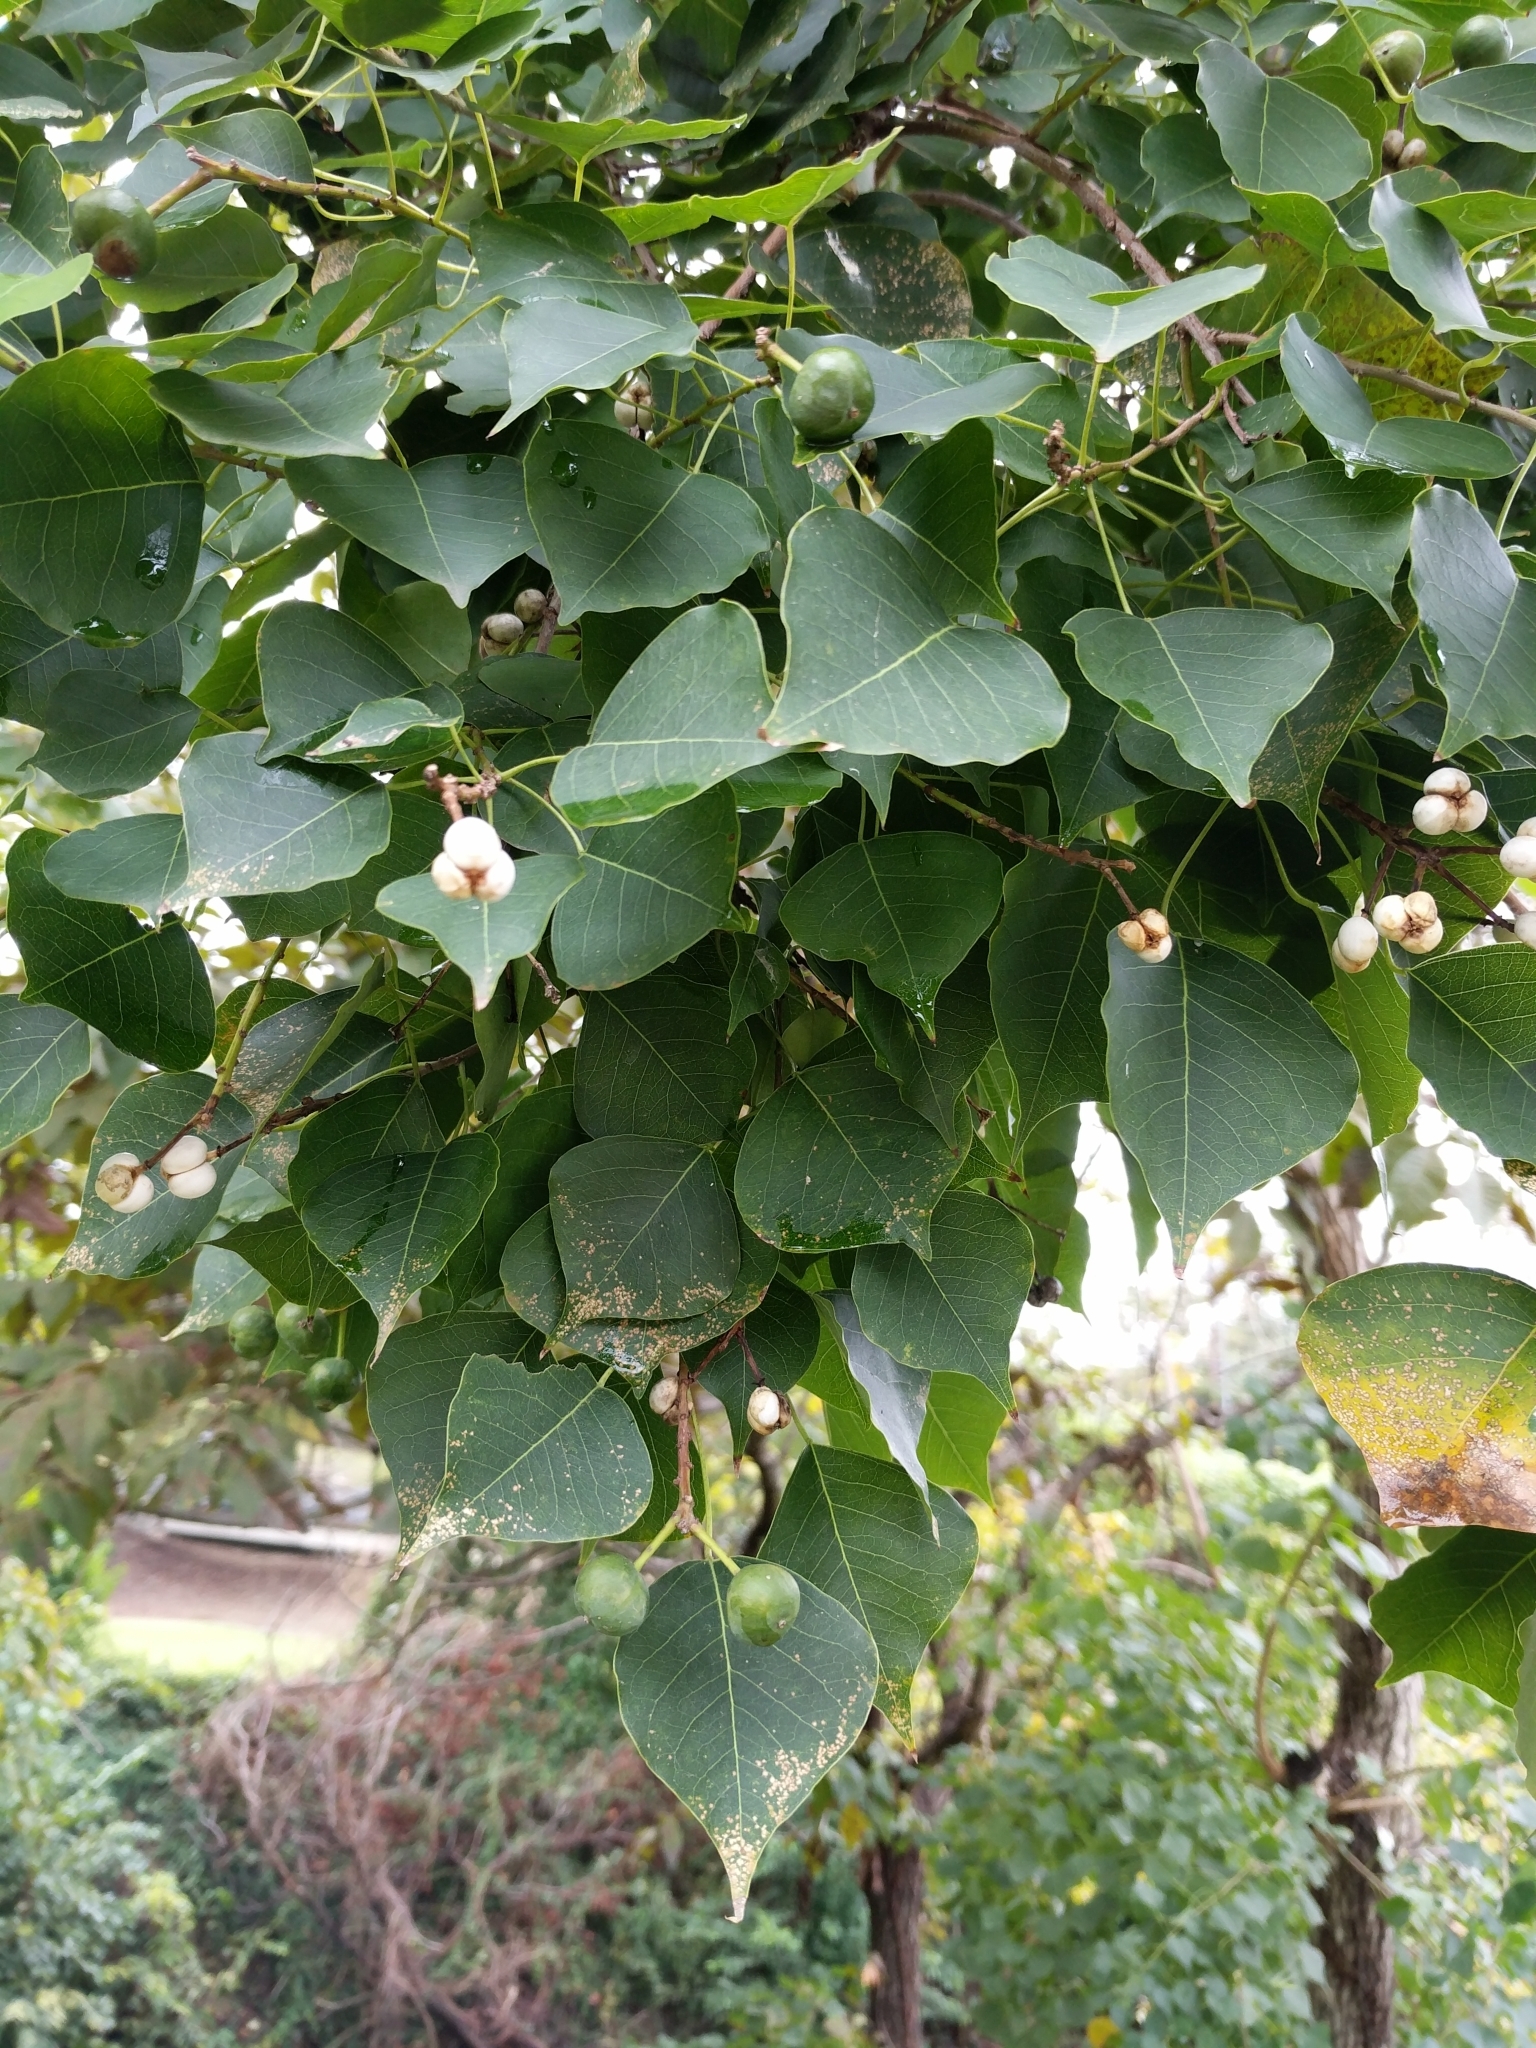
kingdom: Plantae
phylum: Tracheophyta
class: Magnoliopsida
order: Malpighiales
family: Euphorbiaceae
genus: Triadica
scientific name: Triadica sebifera
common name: Chinese tallow
